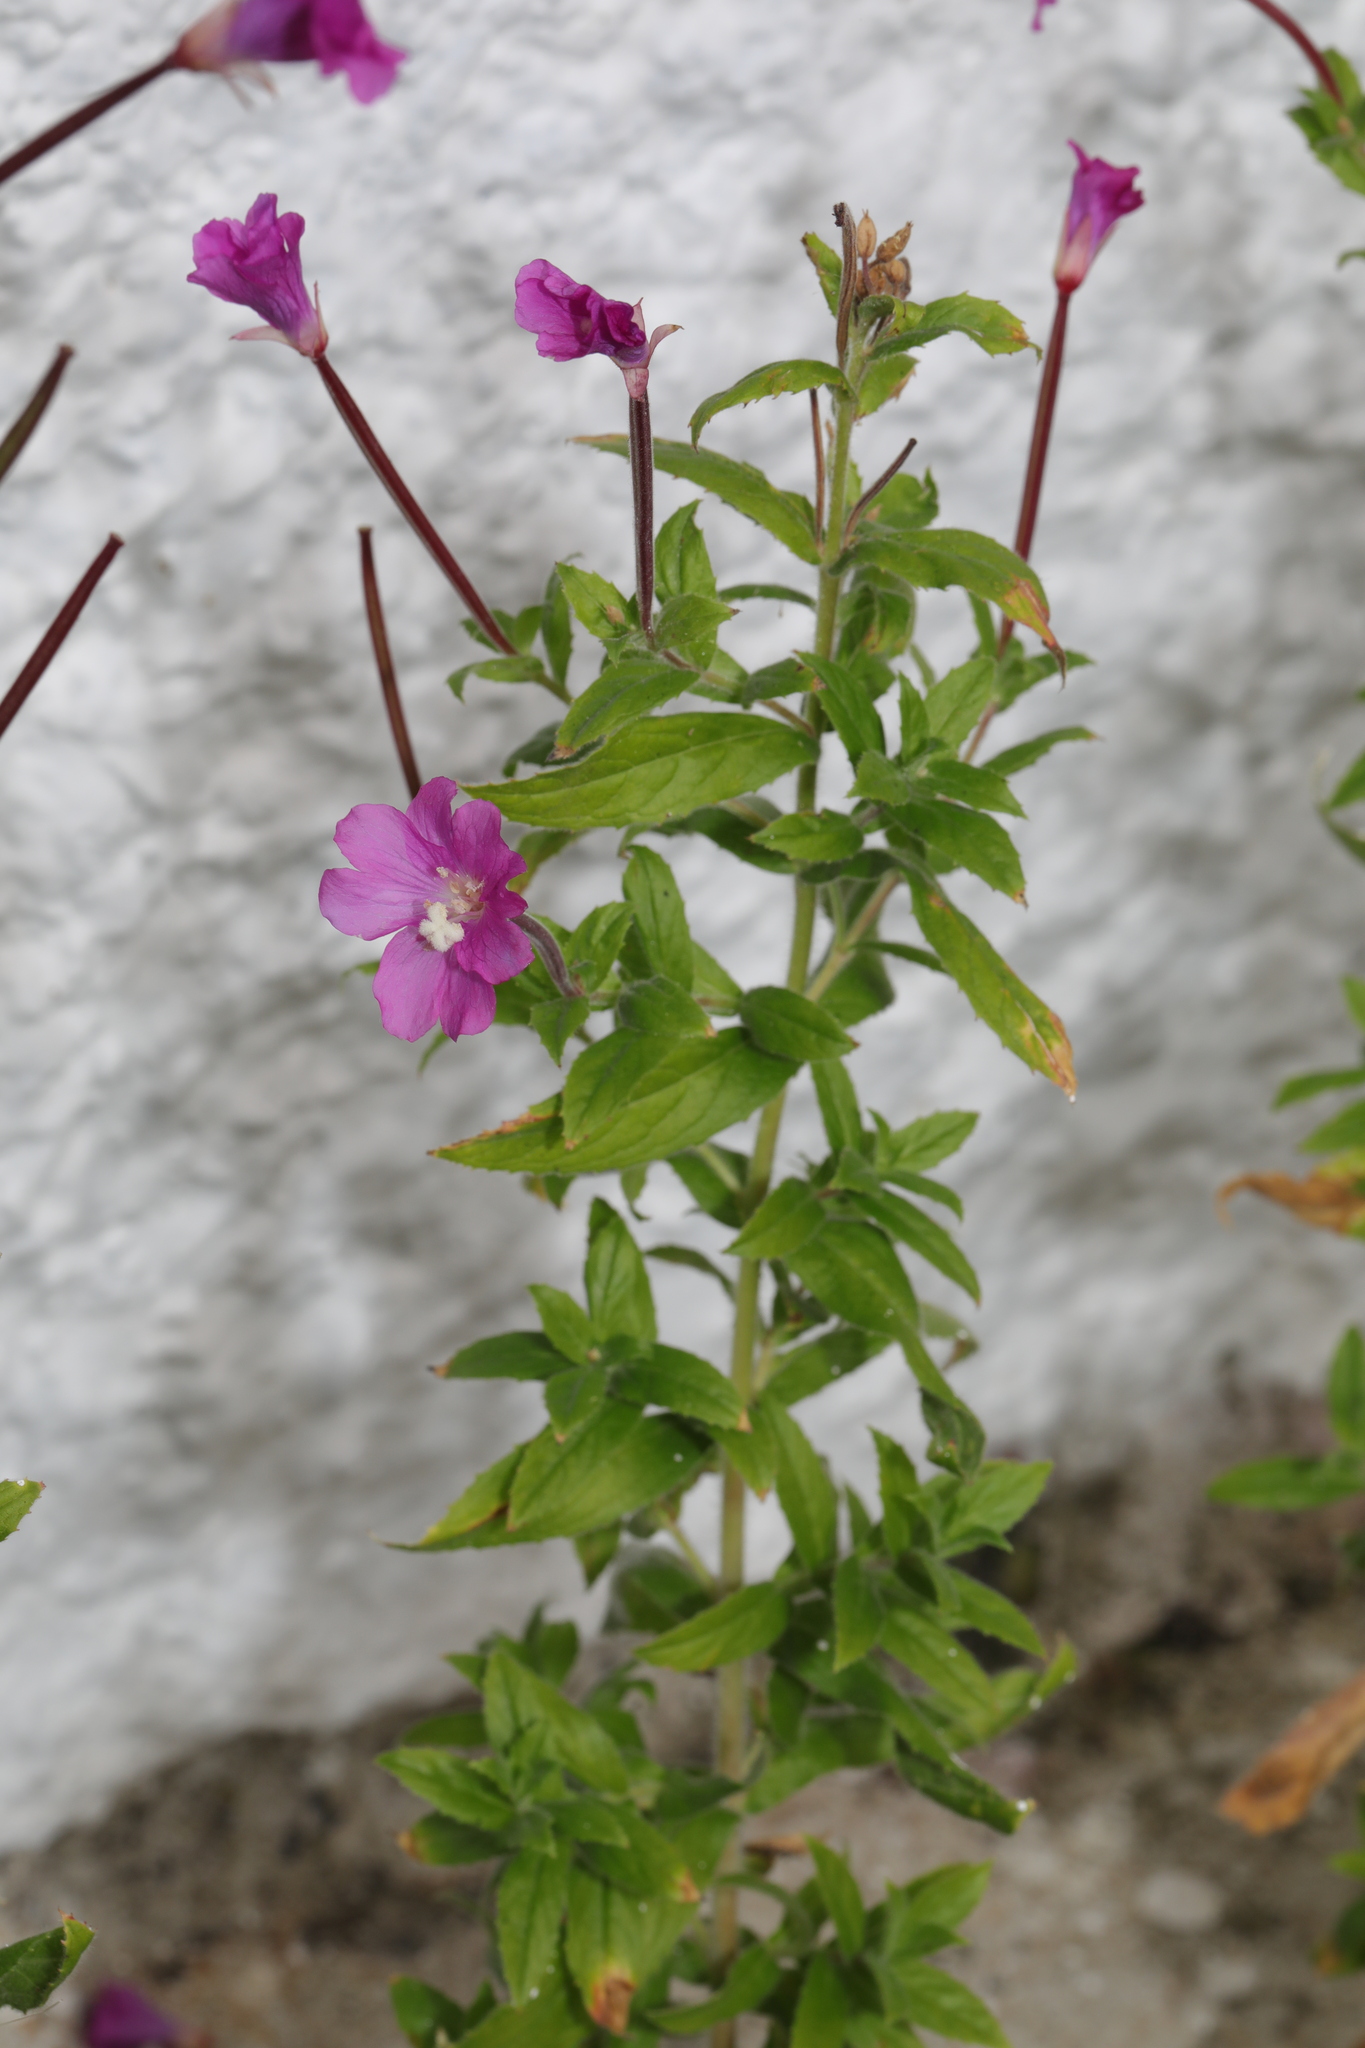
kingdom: Plantae
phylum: Tracheophyta
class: Magnoliopsida
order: Myrtales
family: Onagraceae
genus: Epilobium
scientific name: Epilobium hirsutum
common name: Great willowherb
